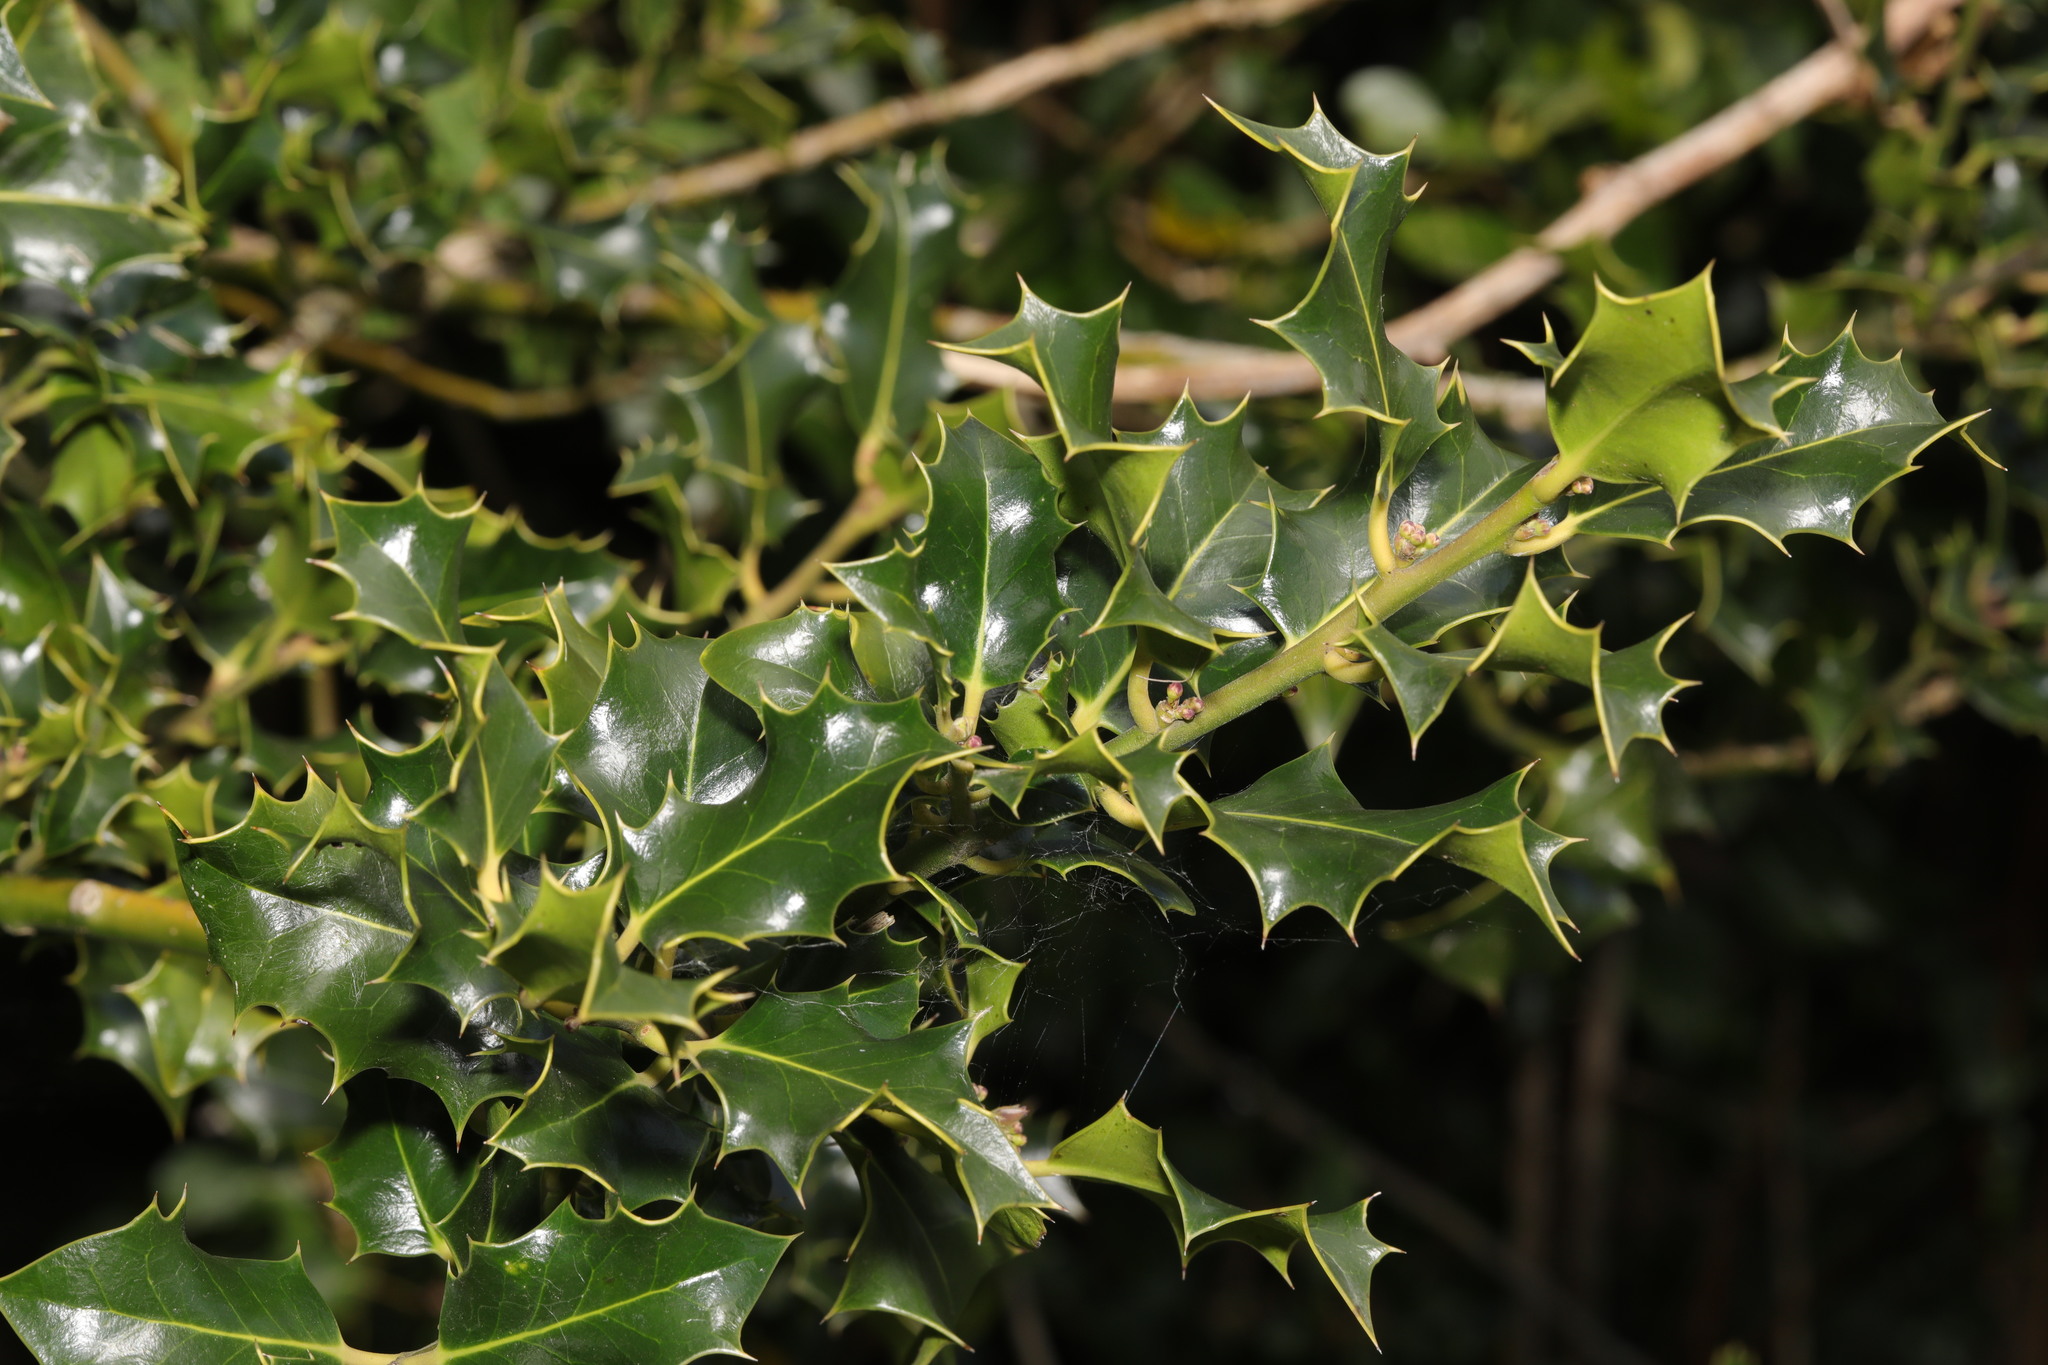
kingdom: Plantae
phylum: Tracheophyta
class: Magnoliopsida
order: Aquifoliales
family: Aquifoliaceae
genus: Ilex
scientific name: Ilex aquifolium
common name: English holly
